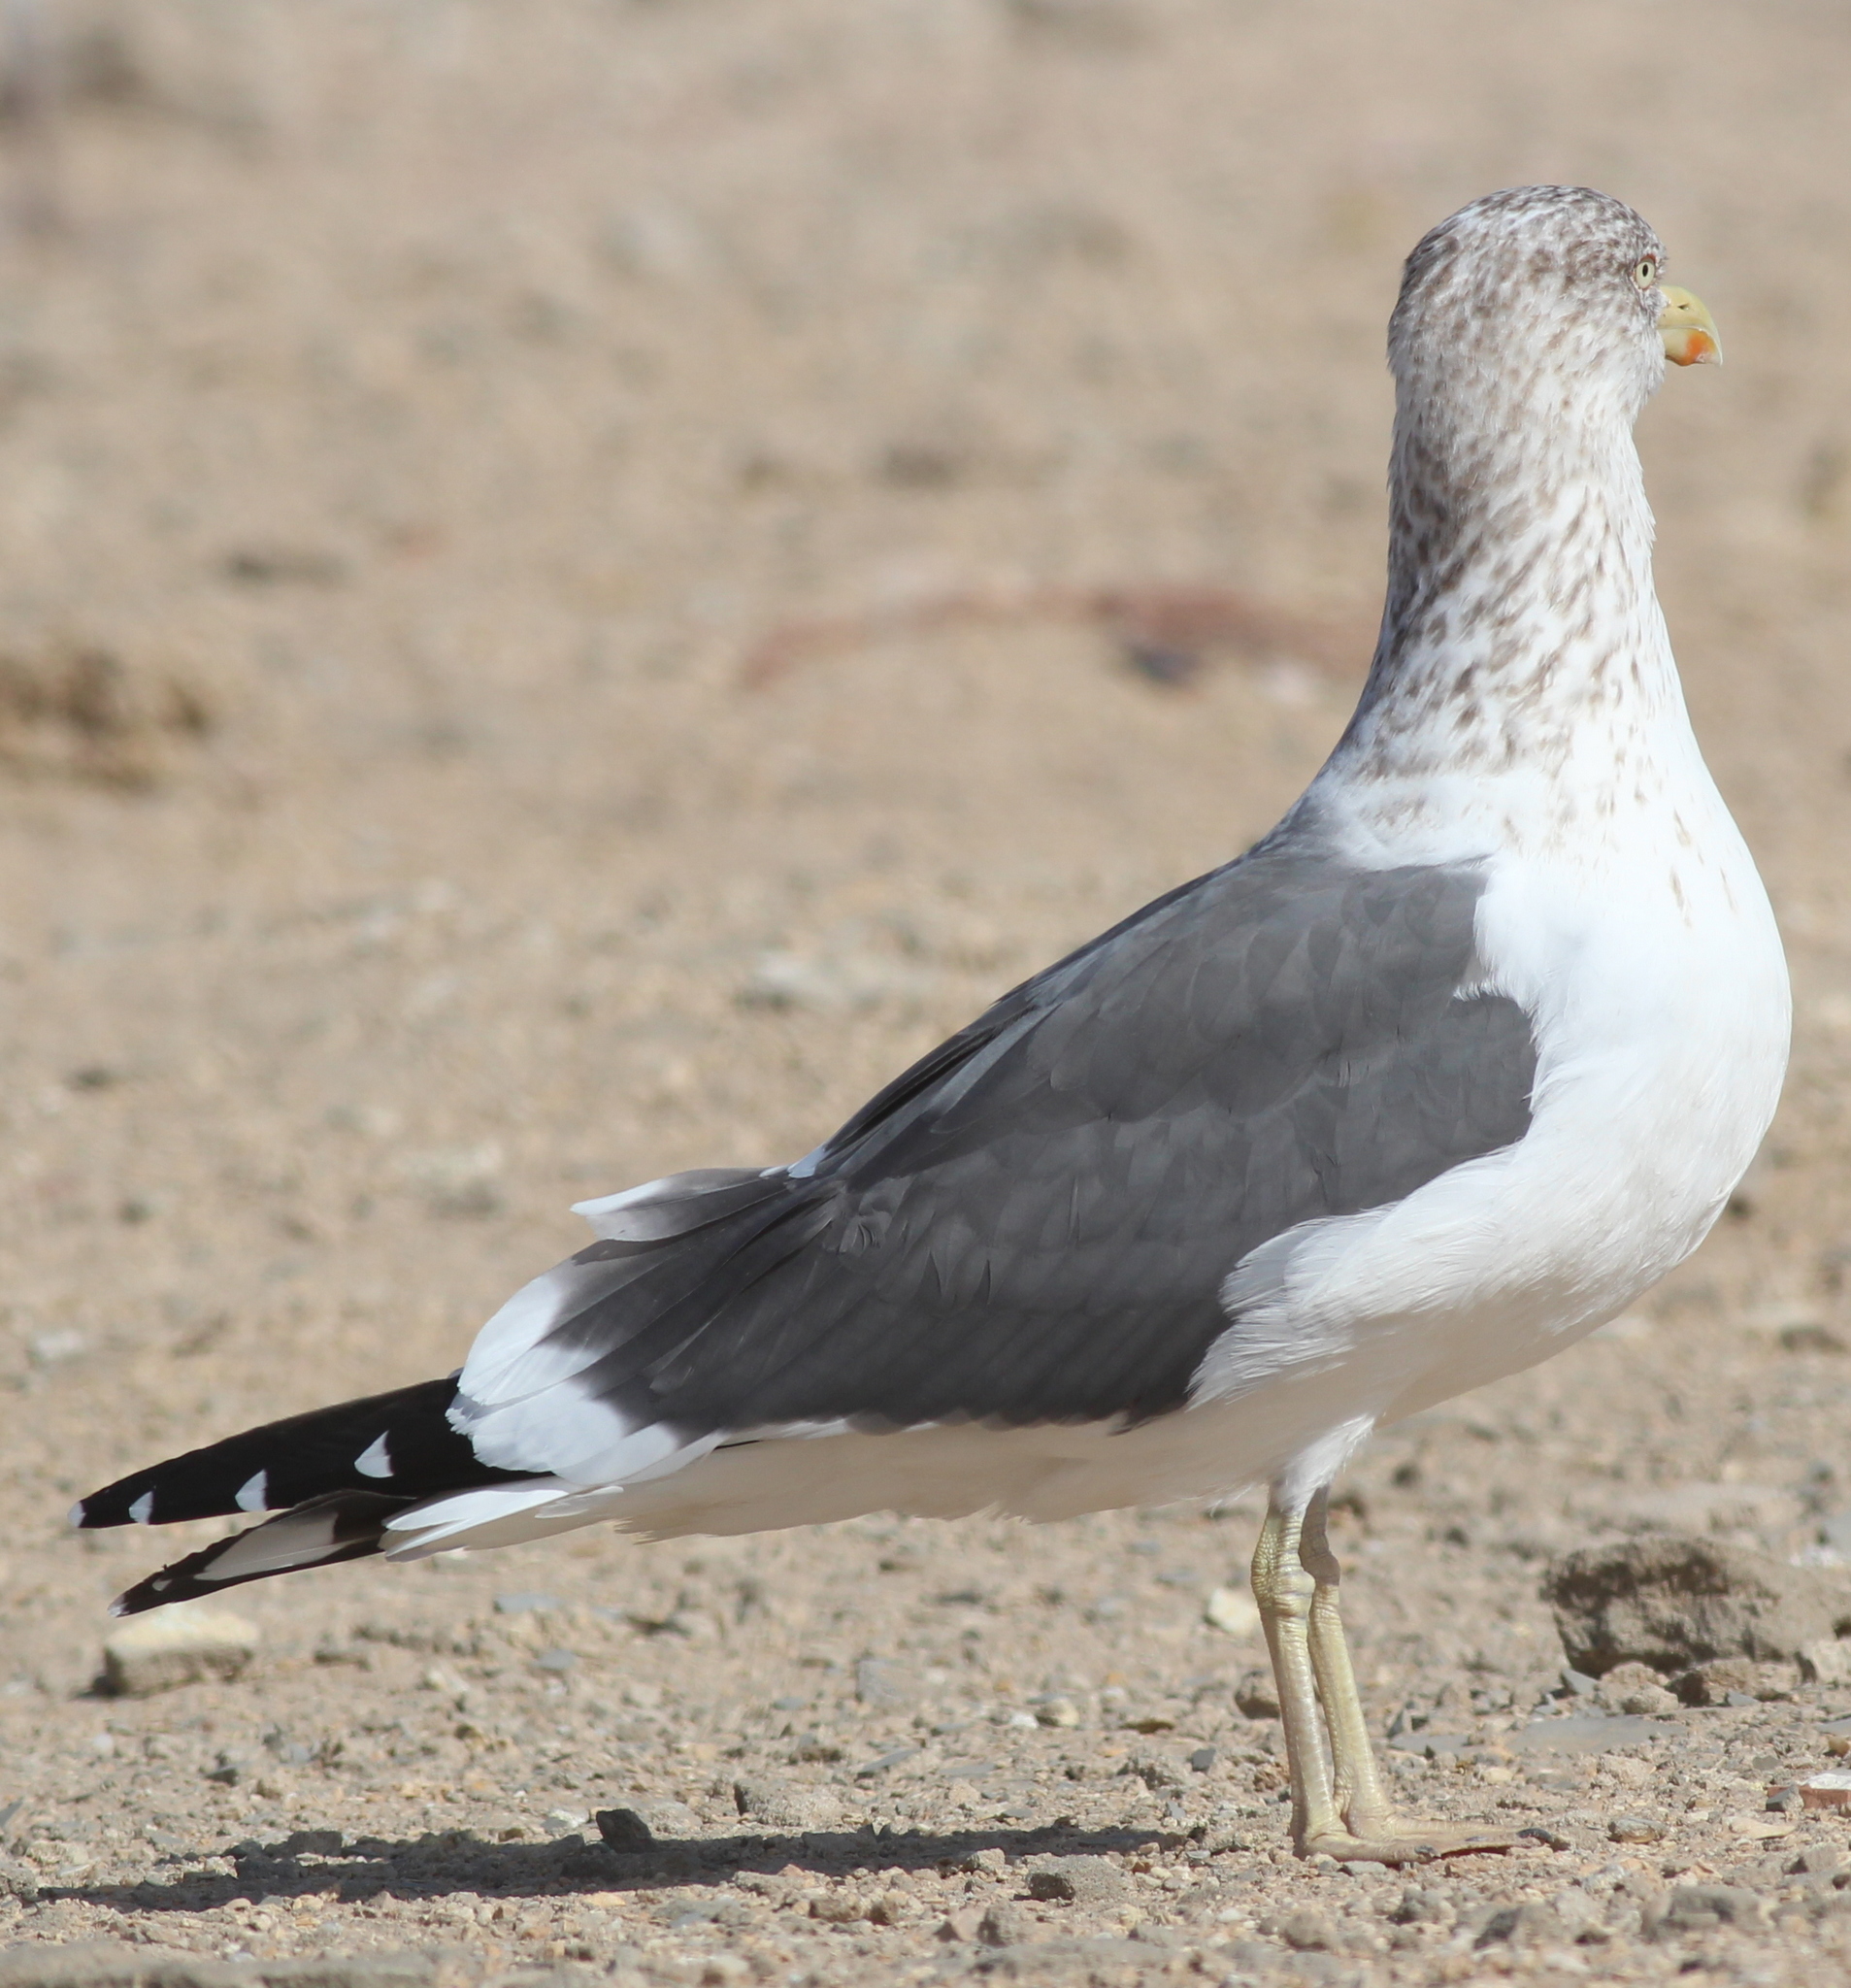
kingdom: Animalia
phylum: Chordata
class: Aves
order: Charadriiformes
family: Laridae
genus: Larus
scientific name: Larus fuscus
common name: Lesser black-backed gull
